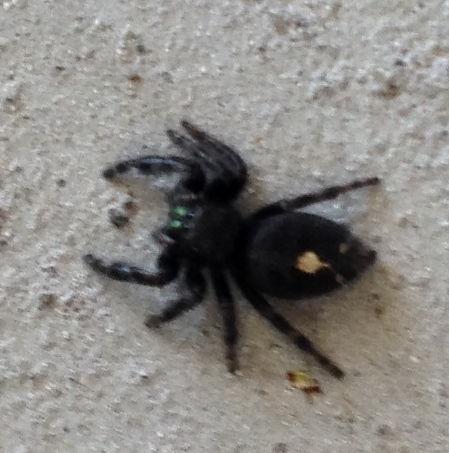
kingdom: Animalia
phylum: Arthropoda
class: Arachnida
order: Araneae
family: Salticidae
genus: Phidippus
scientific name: Phidippus audax
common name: Bold jumper
